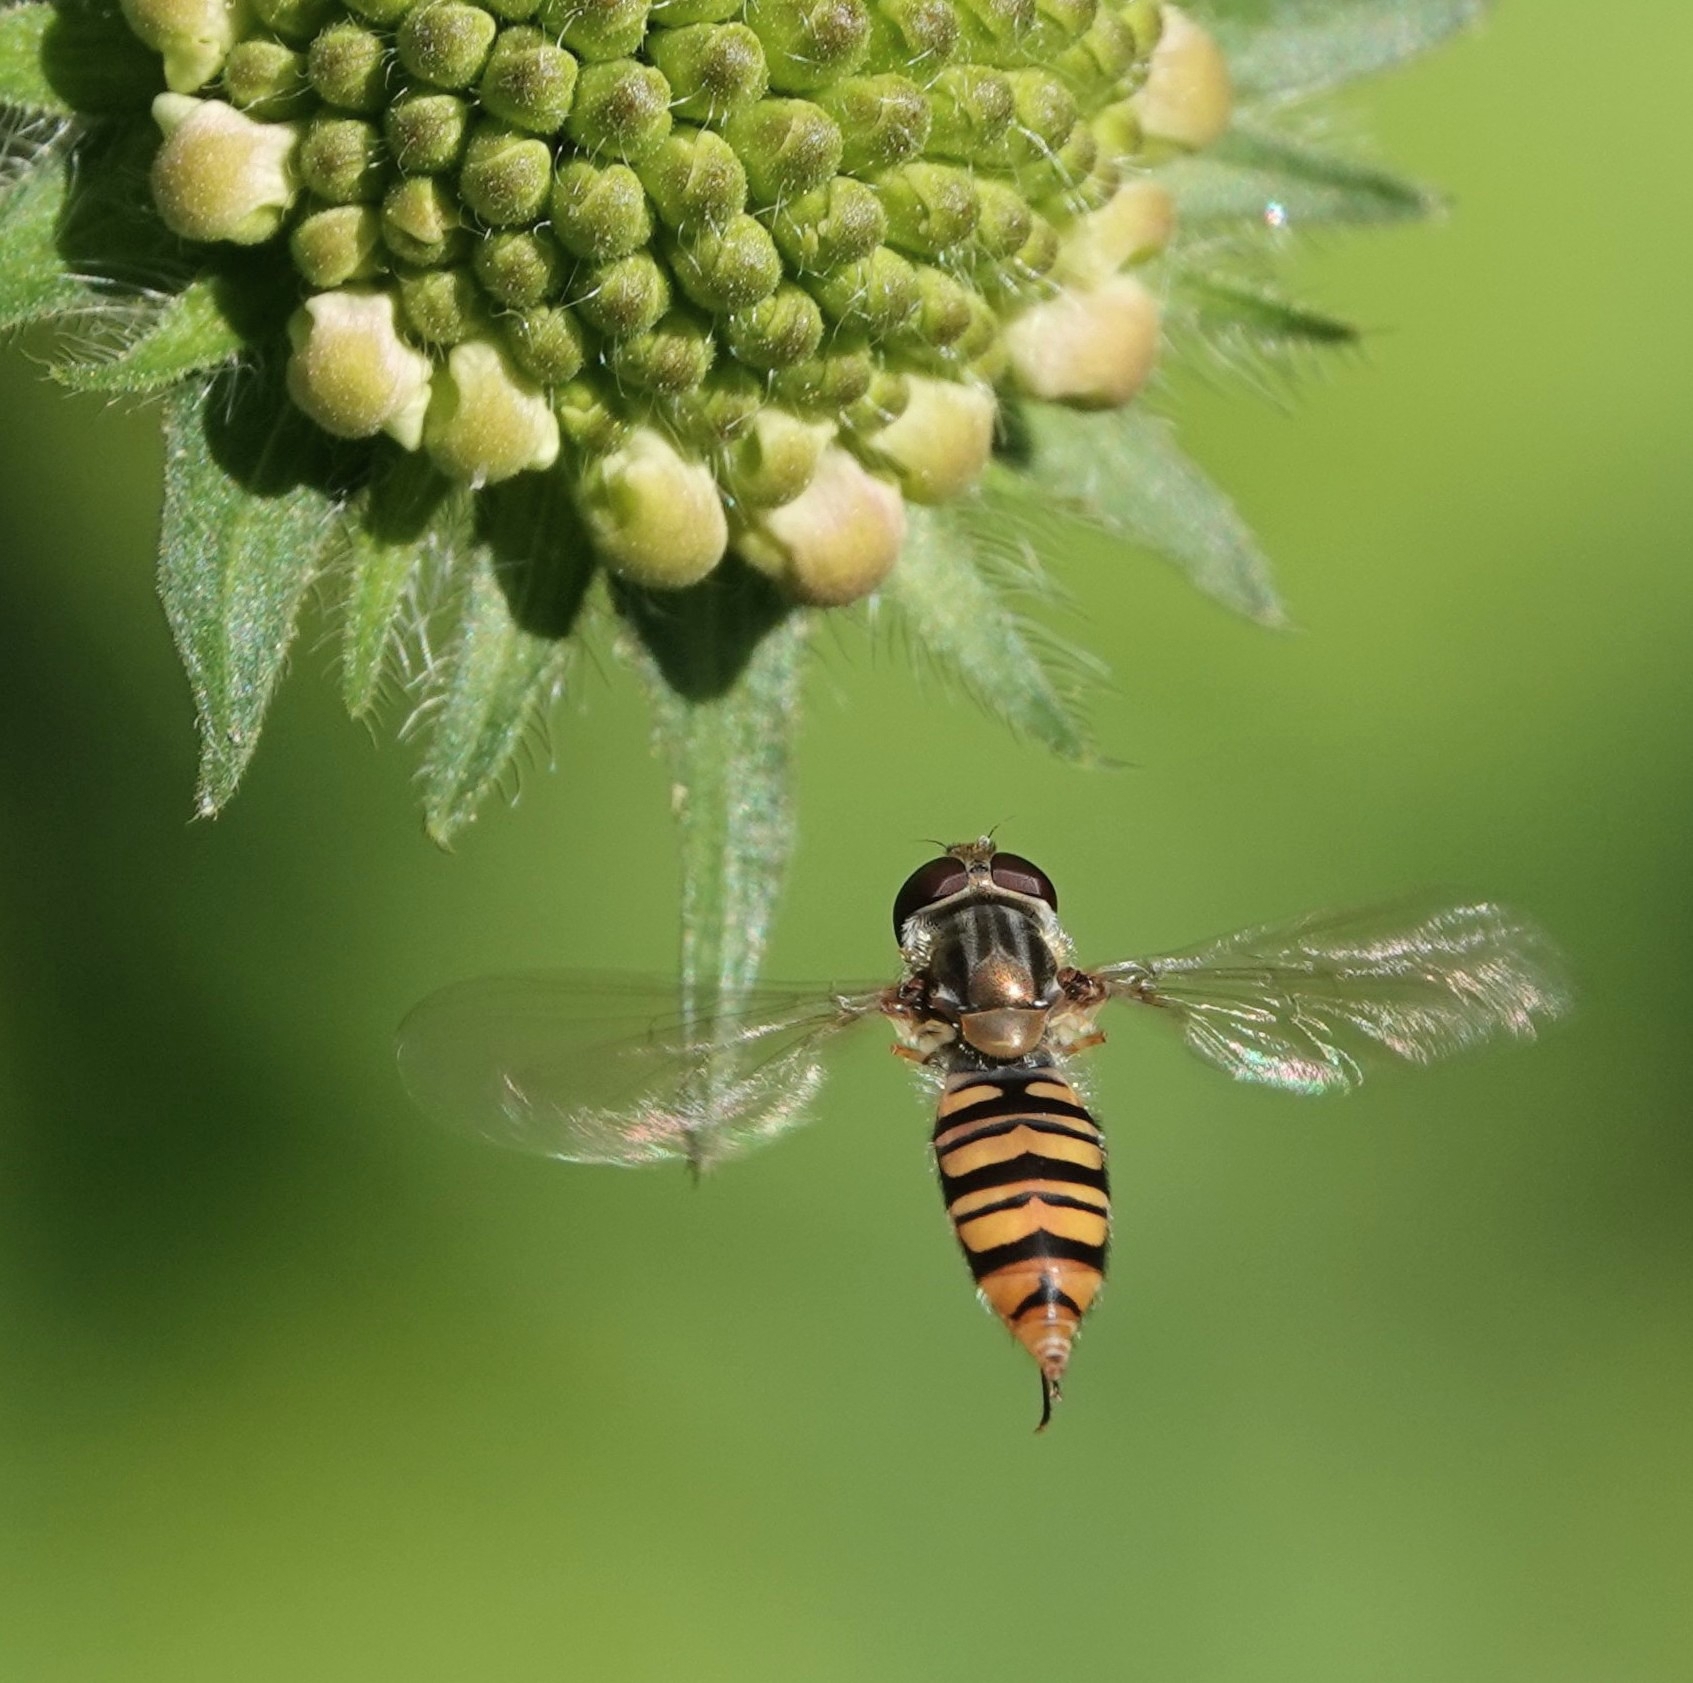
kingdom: Animalia
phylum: Arthropoda
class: Insecta
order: Diptera
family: Syrphidae
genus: Episyrphus
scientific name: Episyrphus balteatus
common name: Marmalade hoverfly
